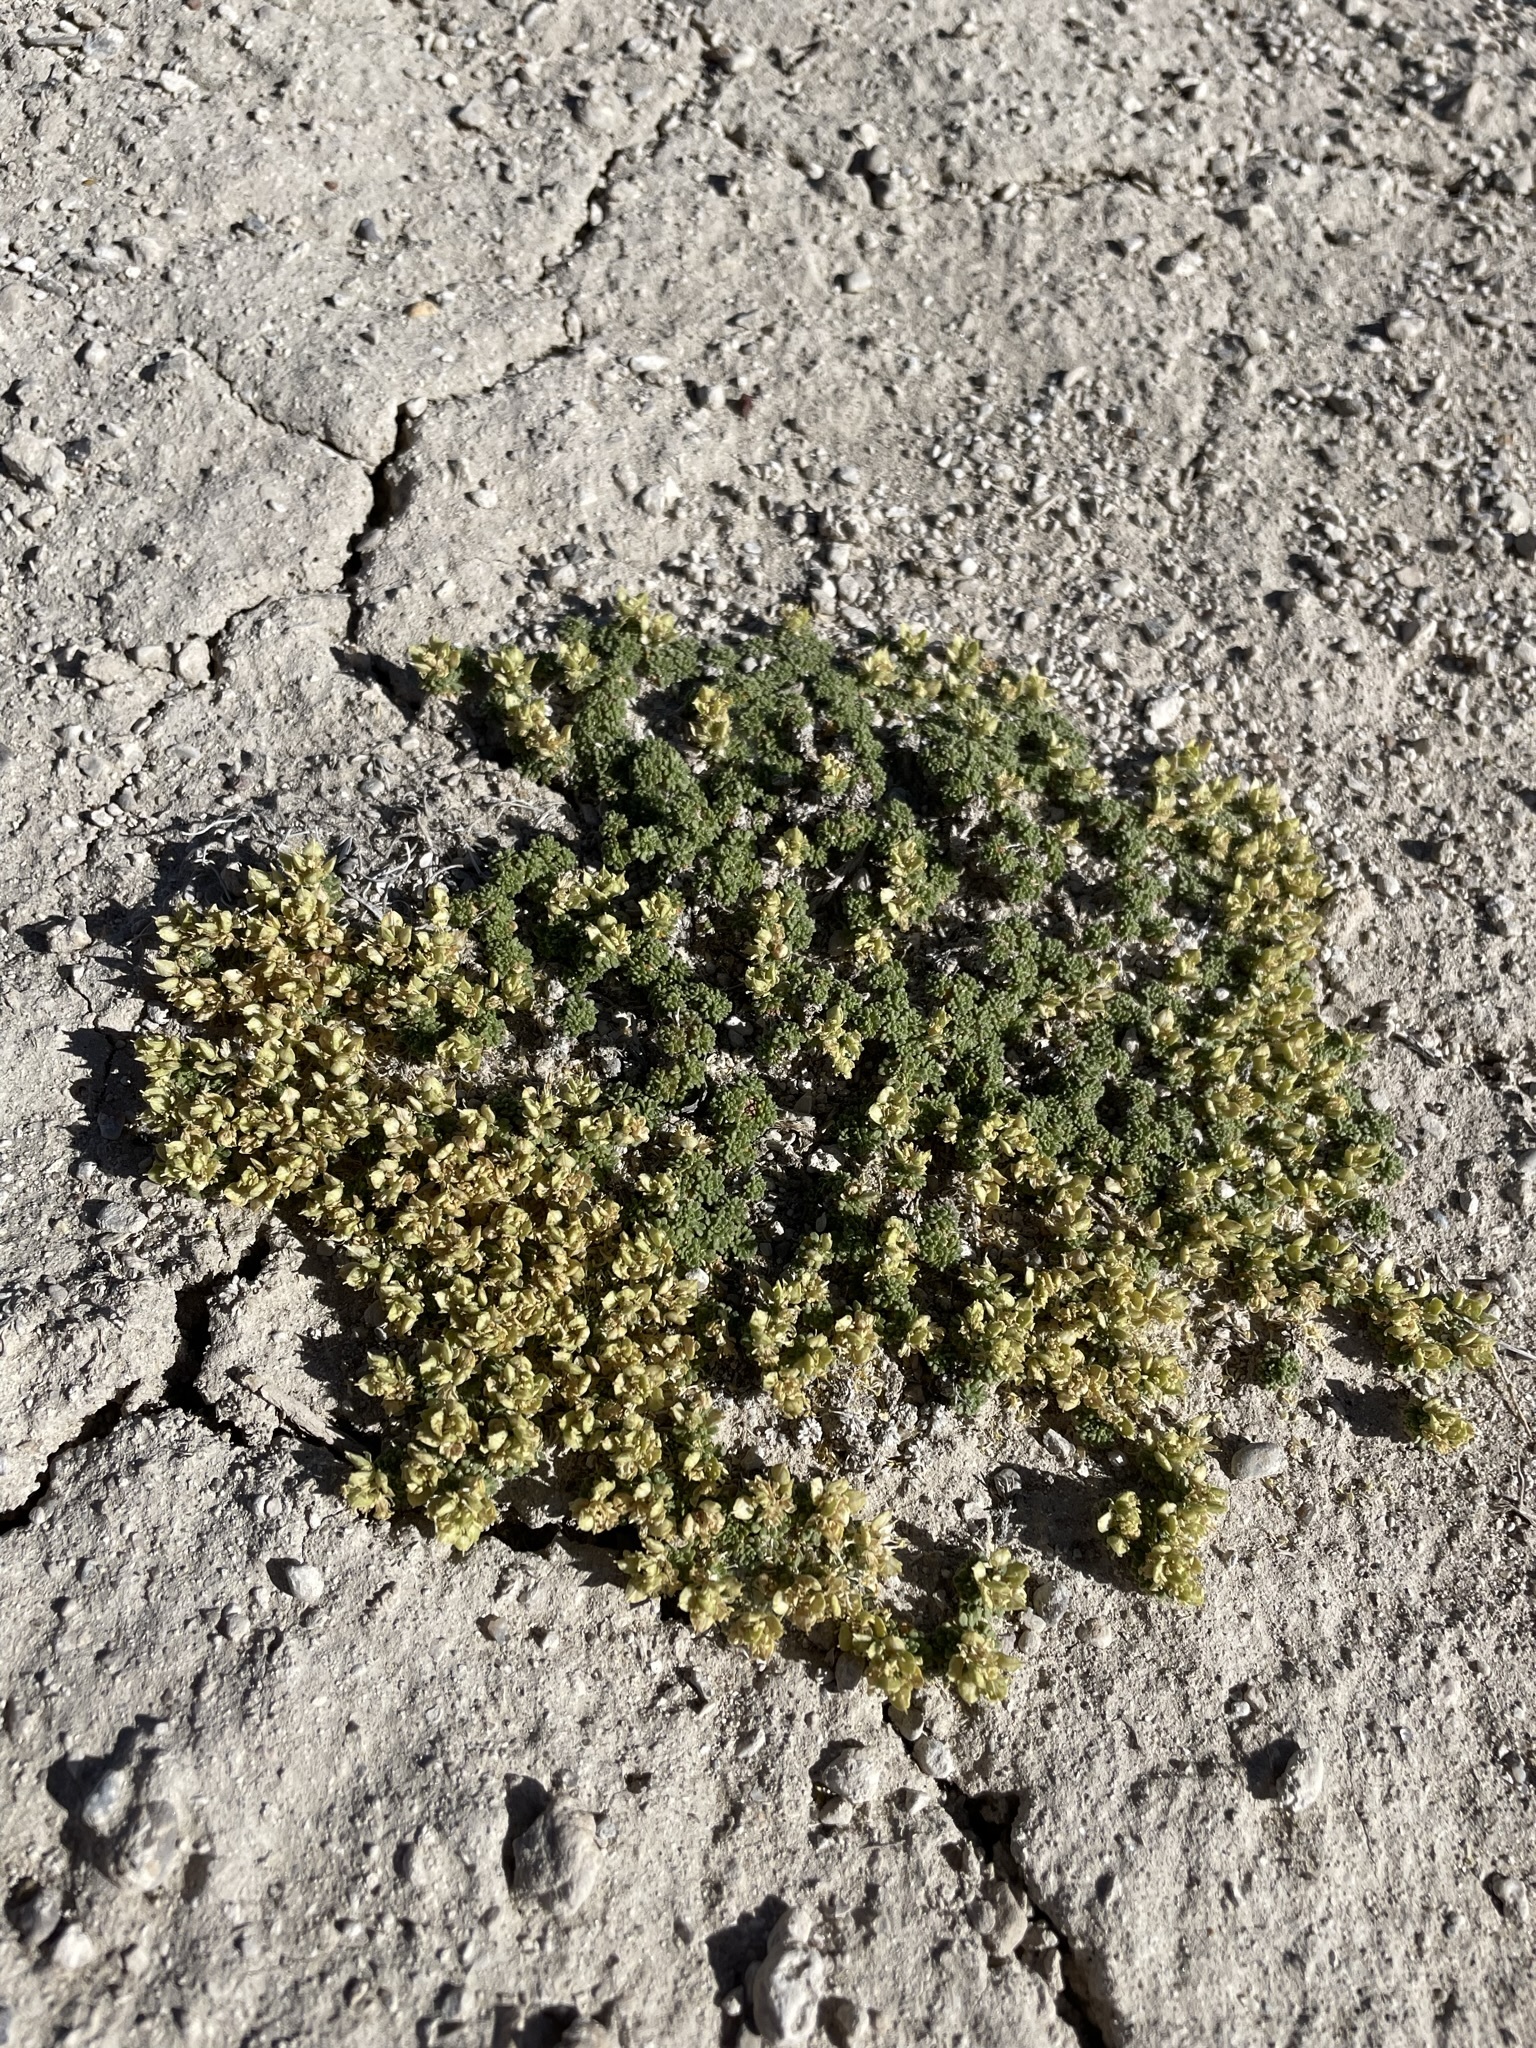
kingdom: Plantae
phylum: Tracheophyta
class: Magnoliopsida
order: Brassicales
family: Brassicaceae
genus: Lepidium
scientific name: Lepidium nanum
